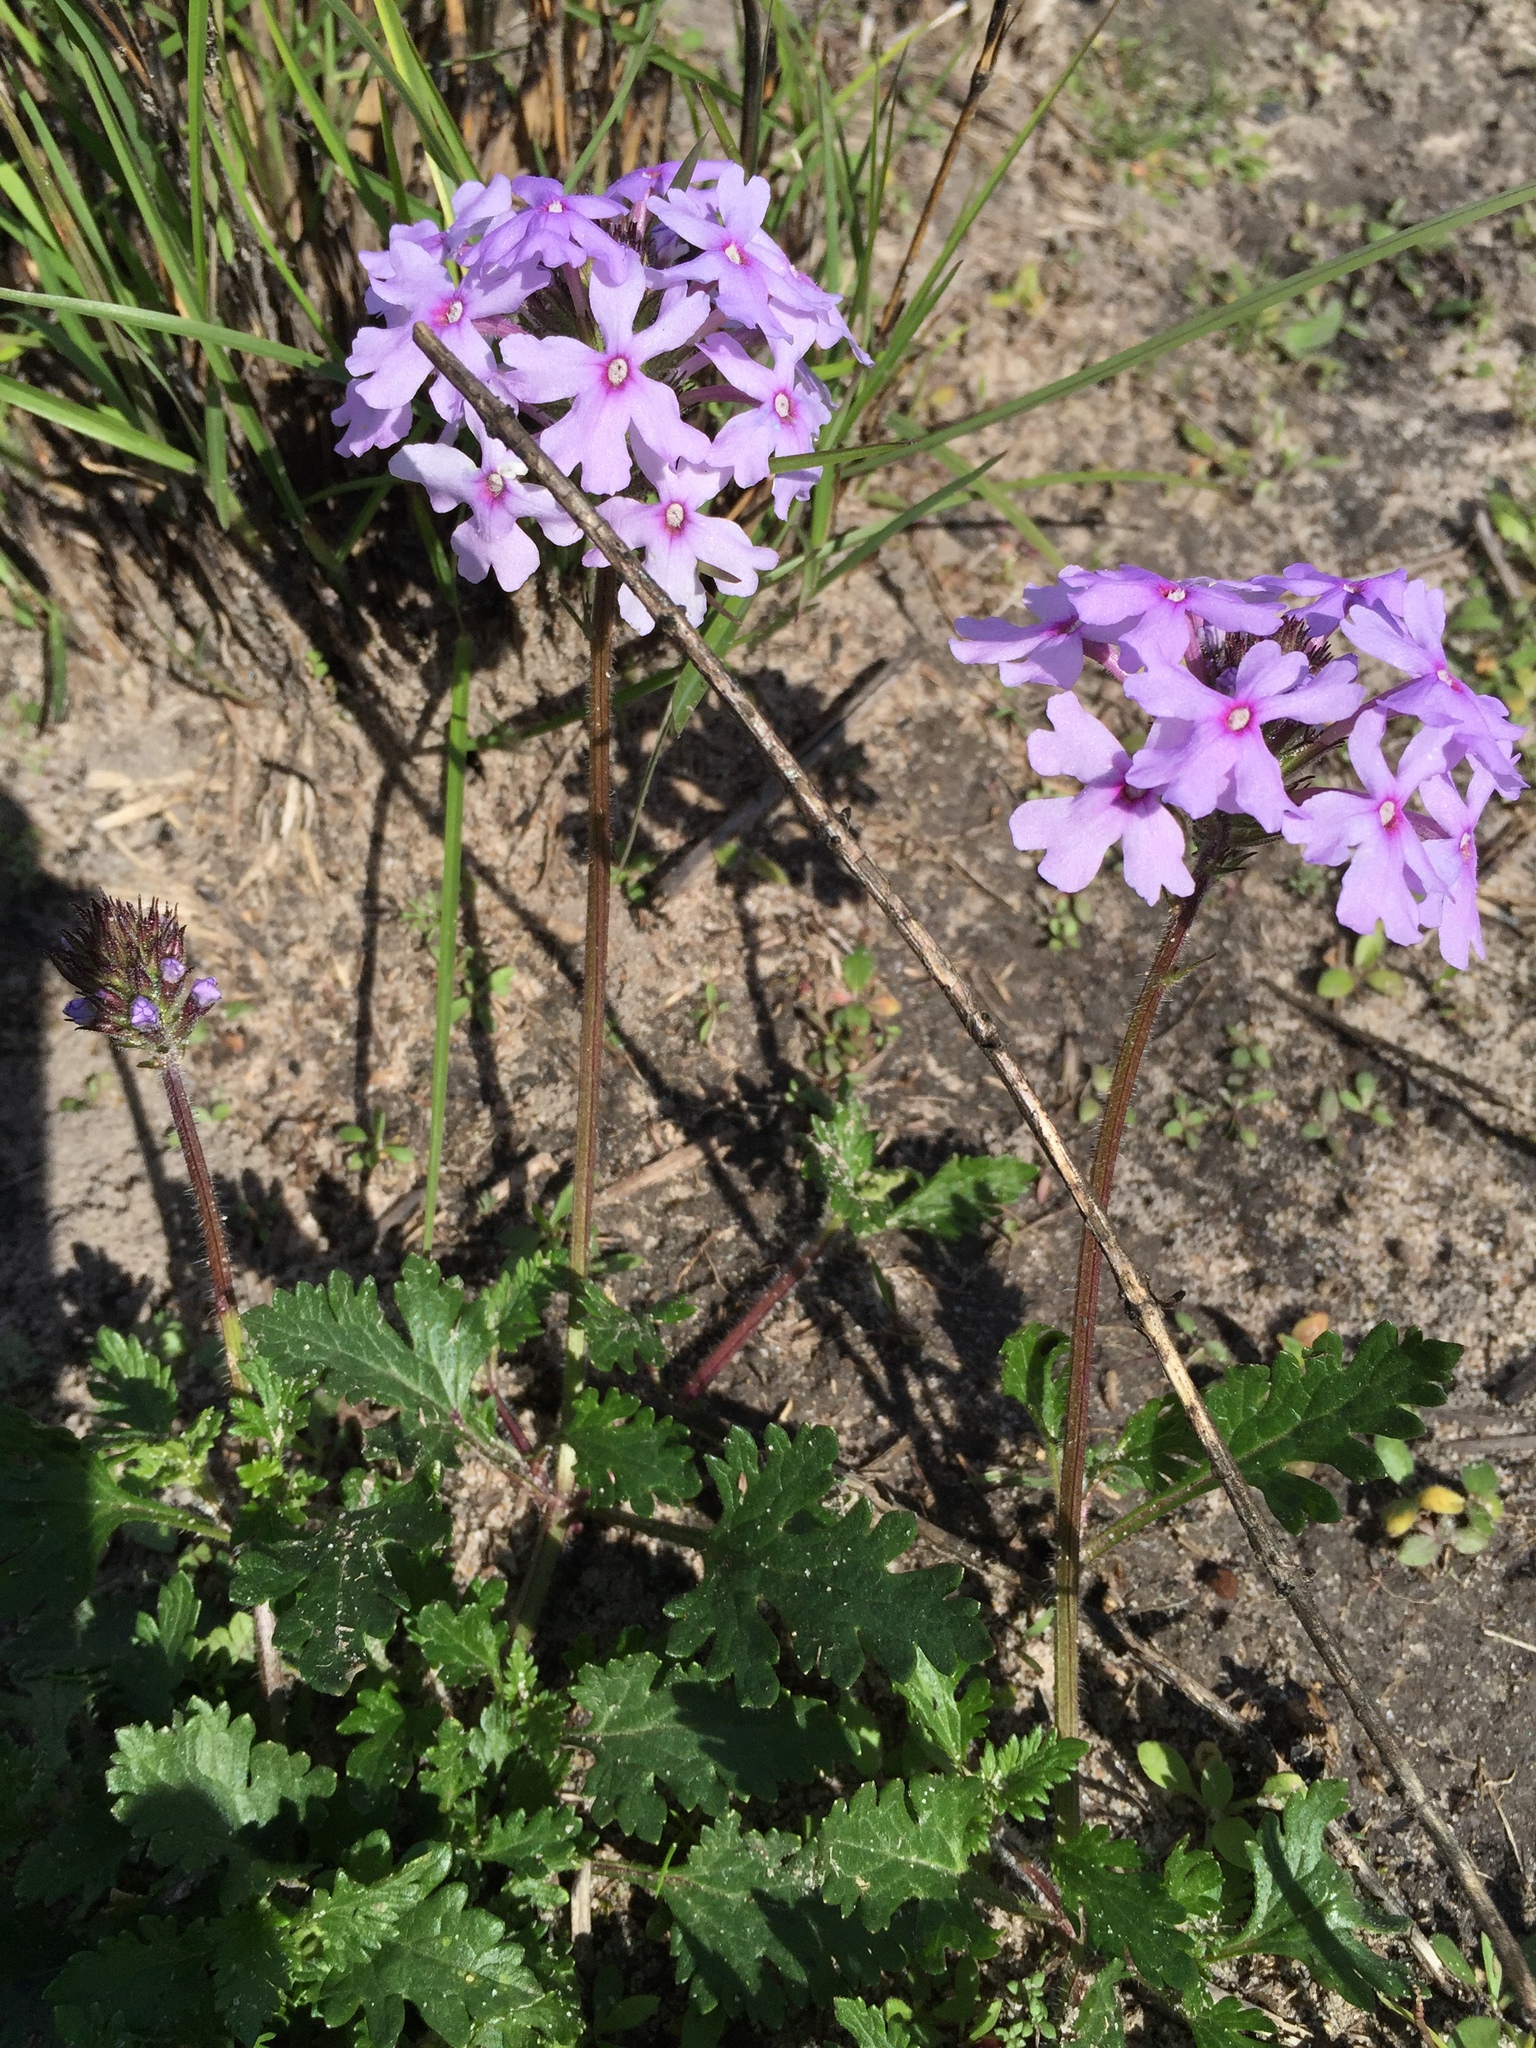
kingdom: Plantae
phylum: Tracheophyta
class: Magnoliopsida
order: Lamiales
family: Verbenaceae
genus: Verbena
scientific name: Verbena canadensis
